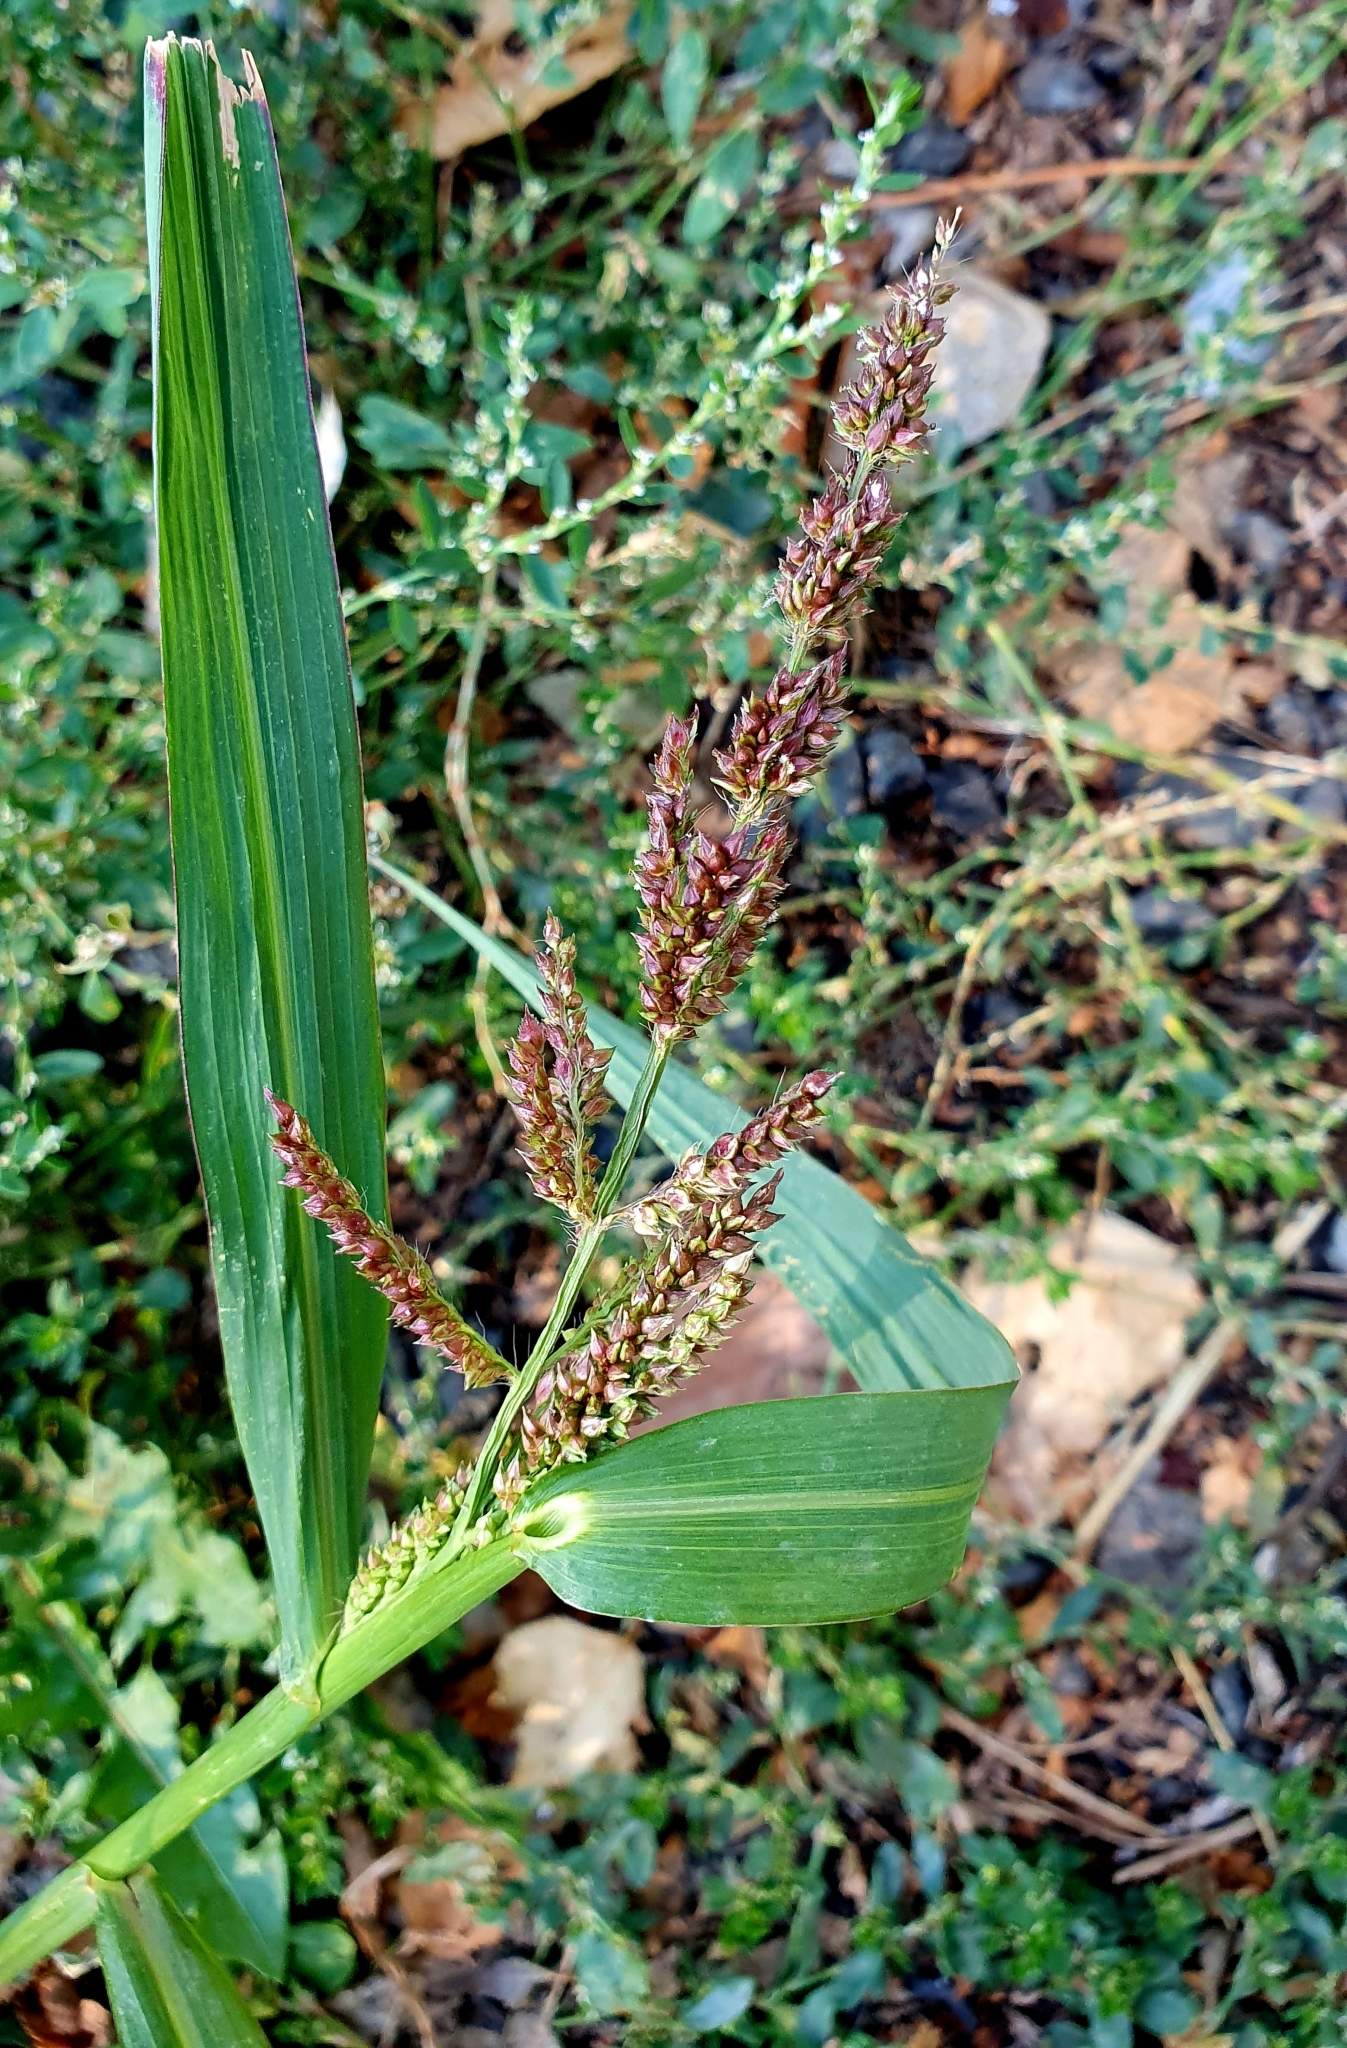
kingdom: Plantae
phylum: Tracheophyta
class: Liliopsida
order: Poales
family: Poaceae
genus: Echinochloa
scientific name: Echinochloa crus-galli
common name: Cockspur
